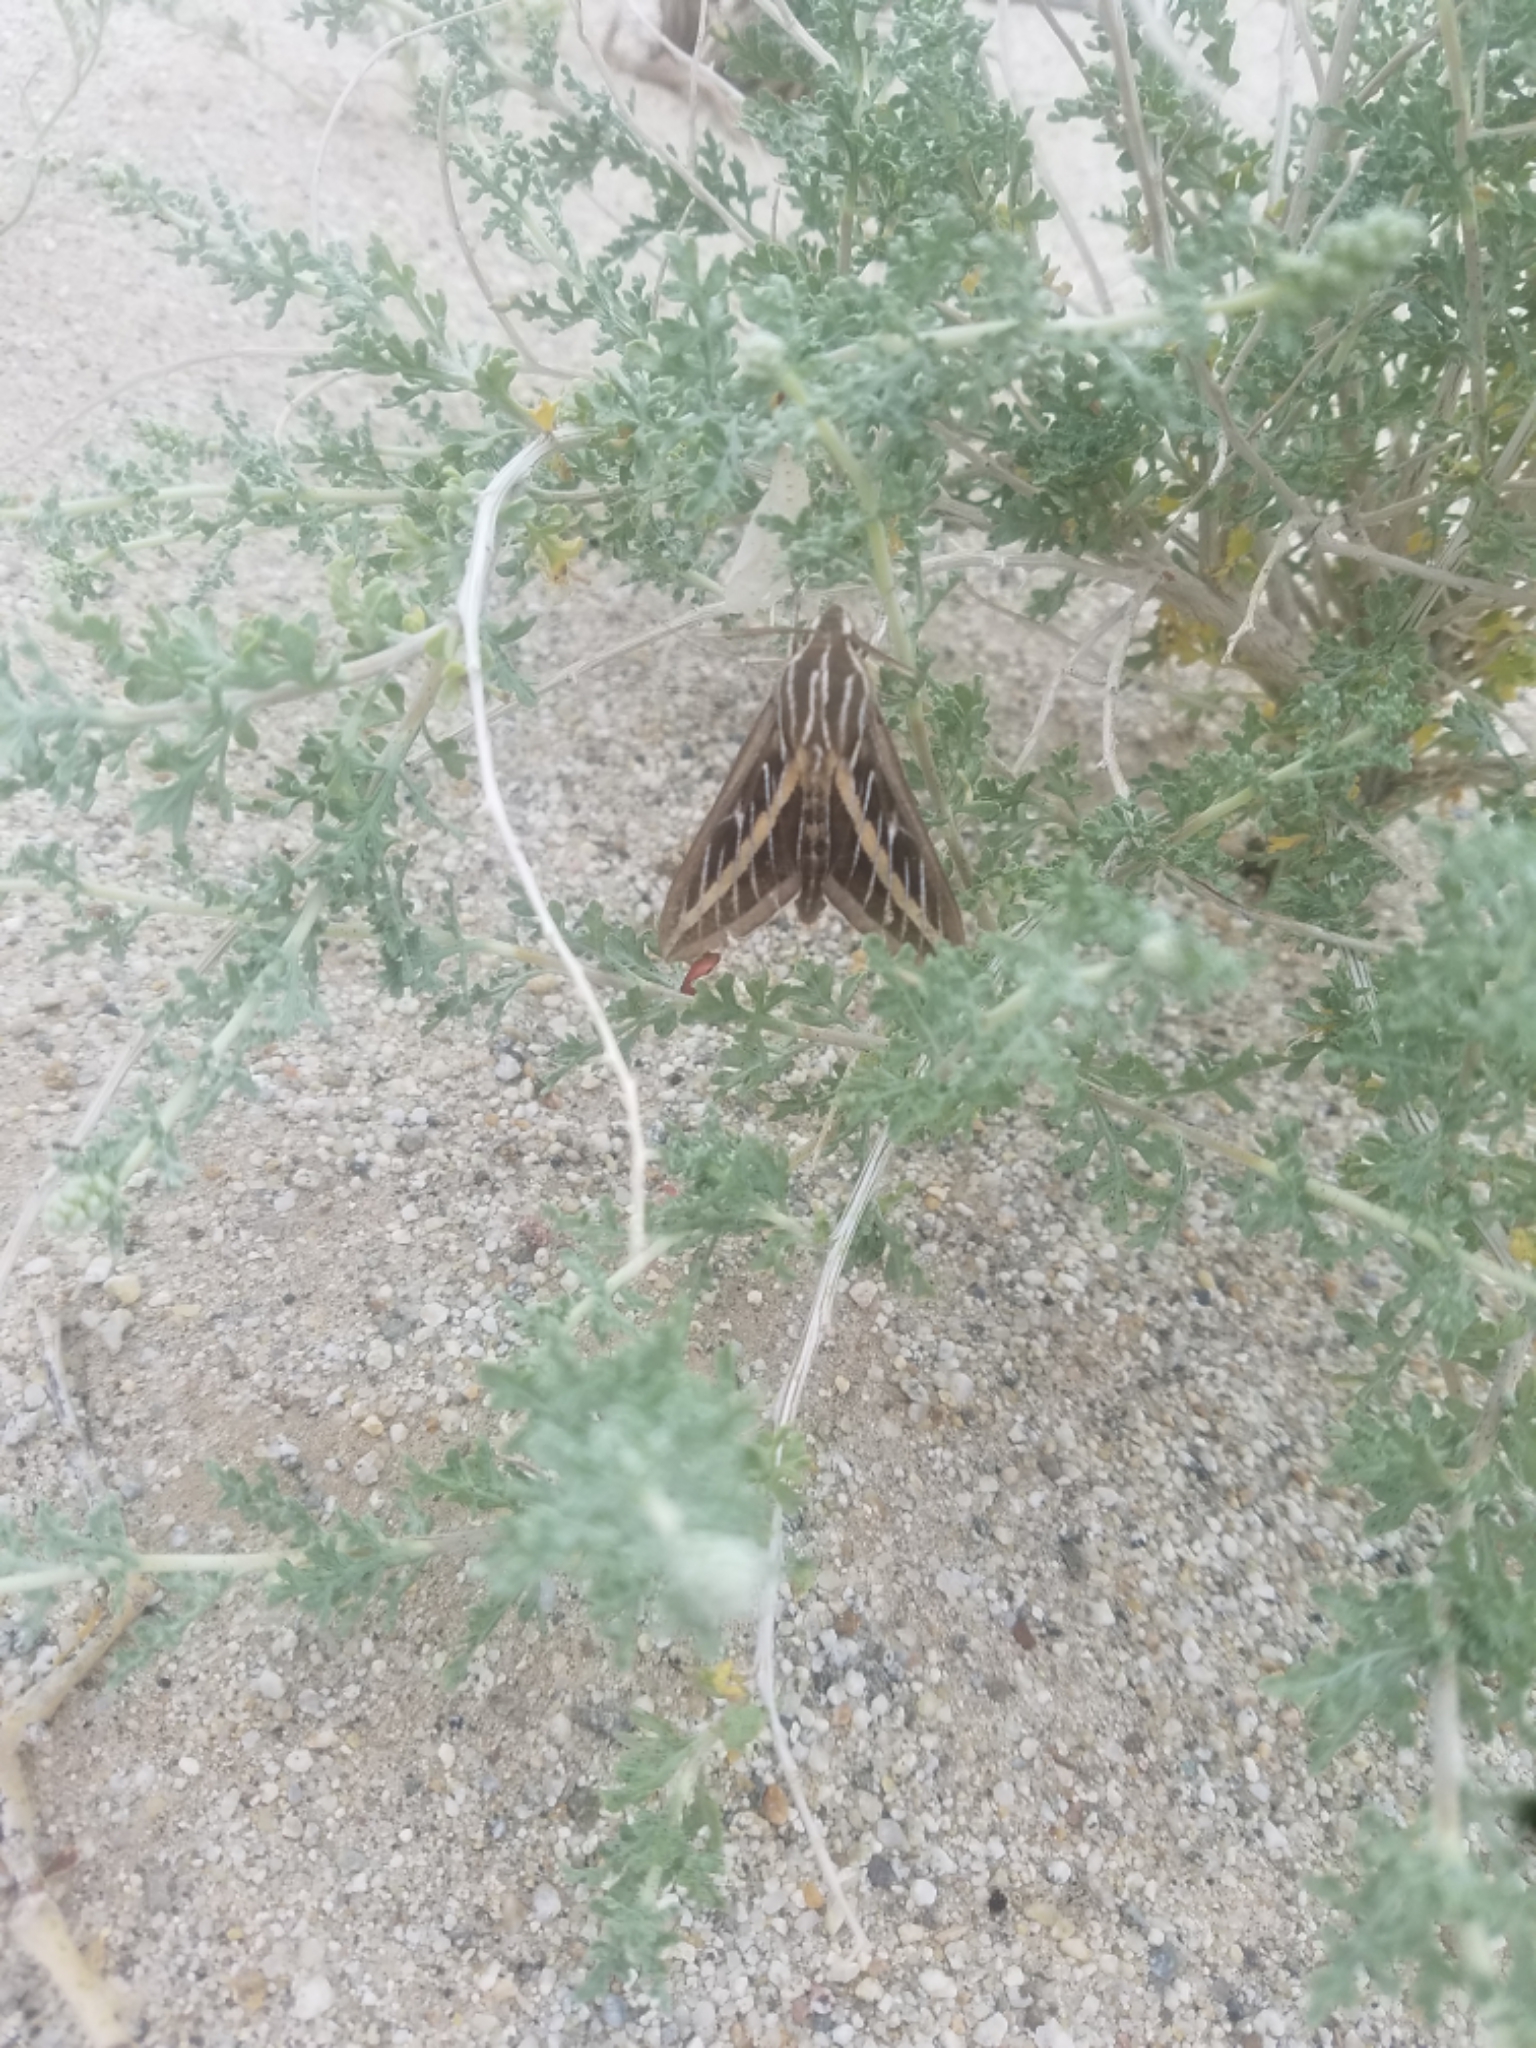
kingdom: Animalia
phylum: Arthropoda
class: Insecta
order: Lepidoptera
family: Sphingidae
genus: Hyles
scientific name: Hyles lineata
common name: White-lined sphinx
